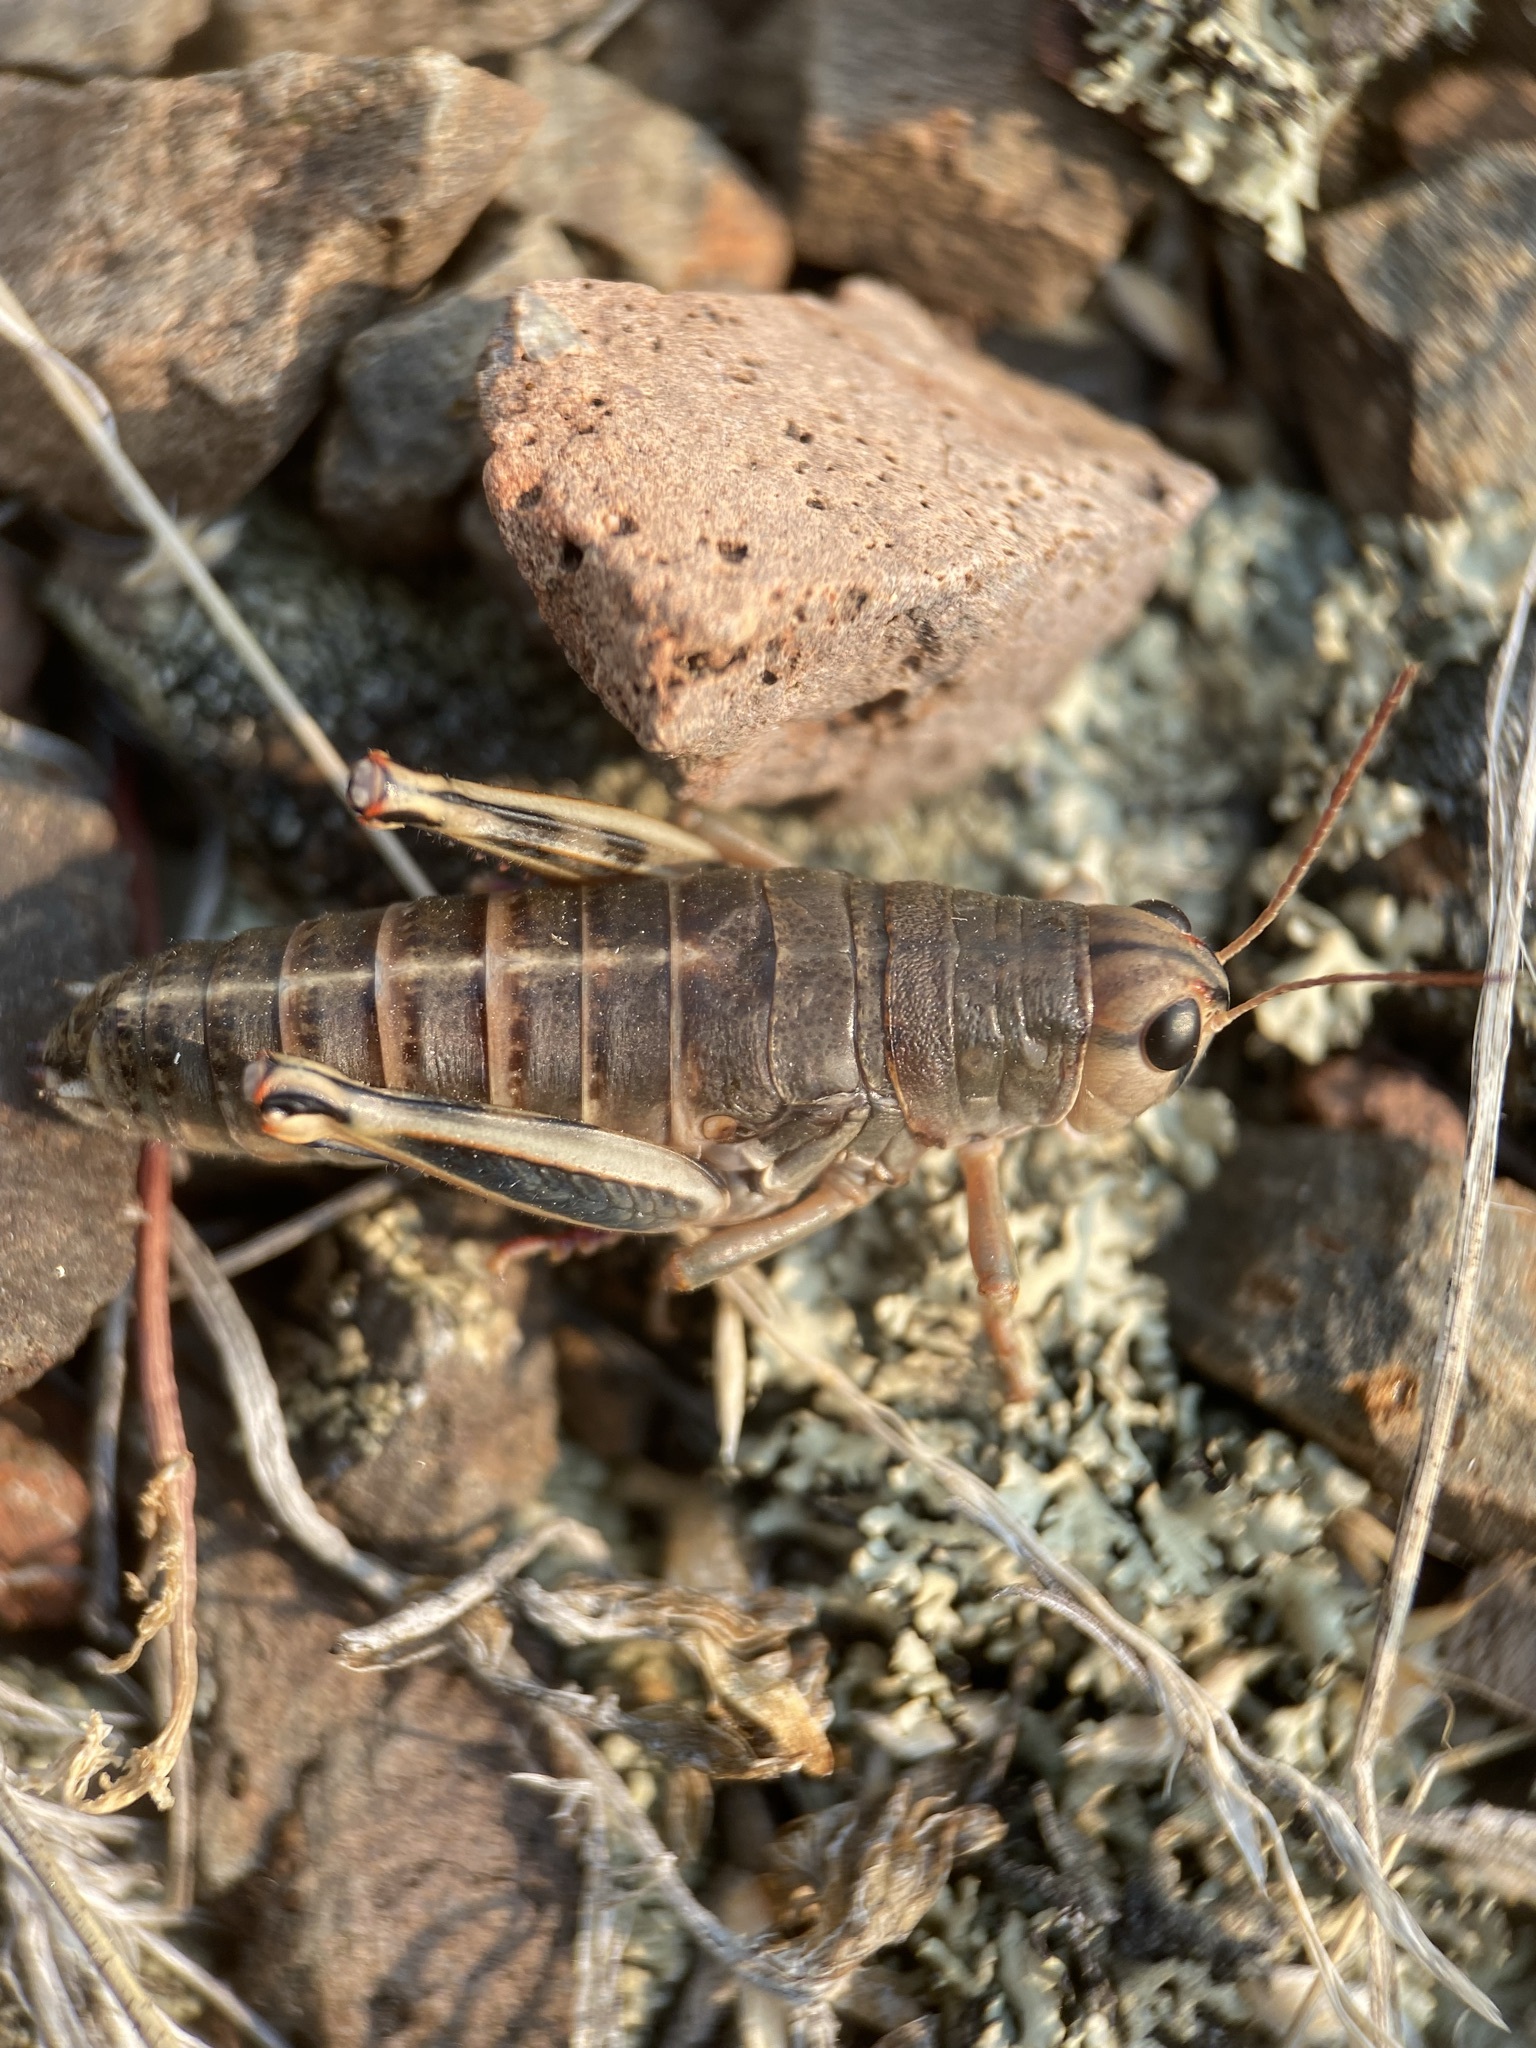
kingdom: Animalia
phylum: Arthropoda
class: Insecta
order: Orthoptera
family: Acrididae
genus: Bradynotes
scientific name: Bradynotes obesa
